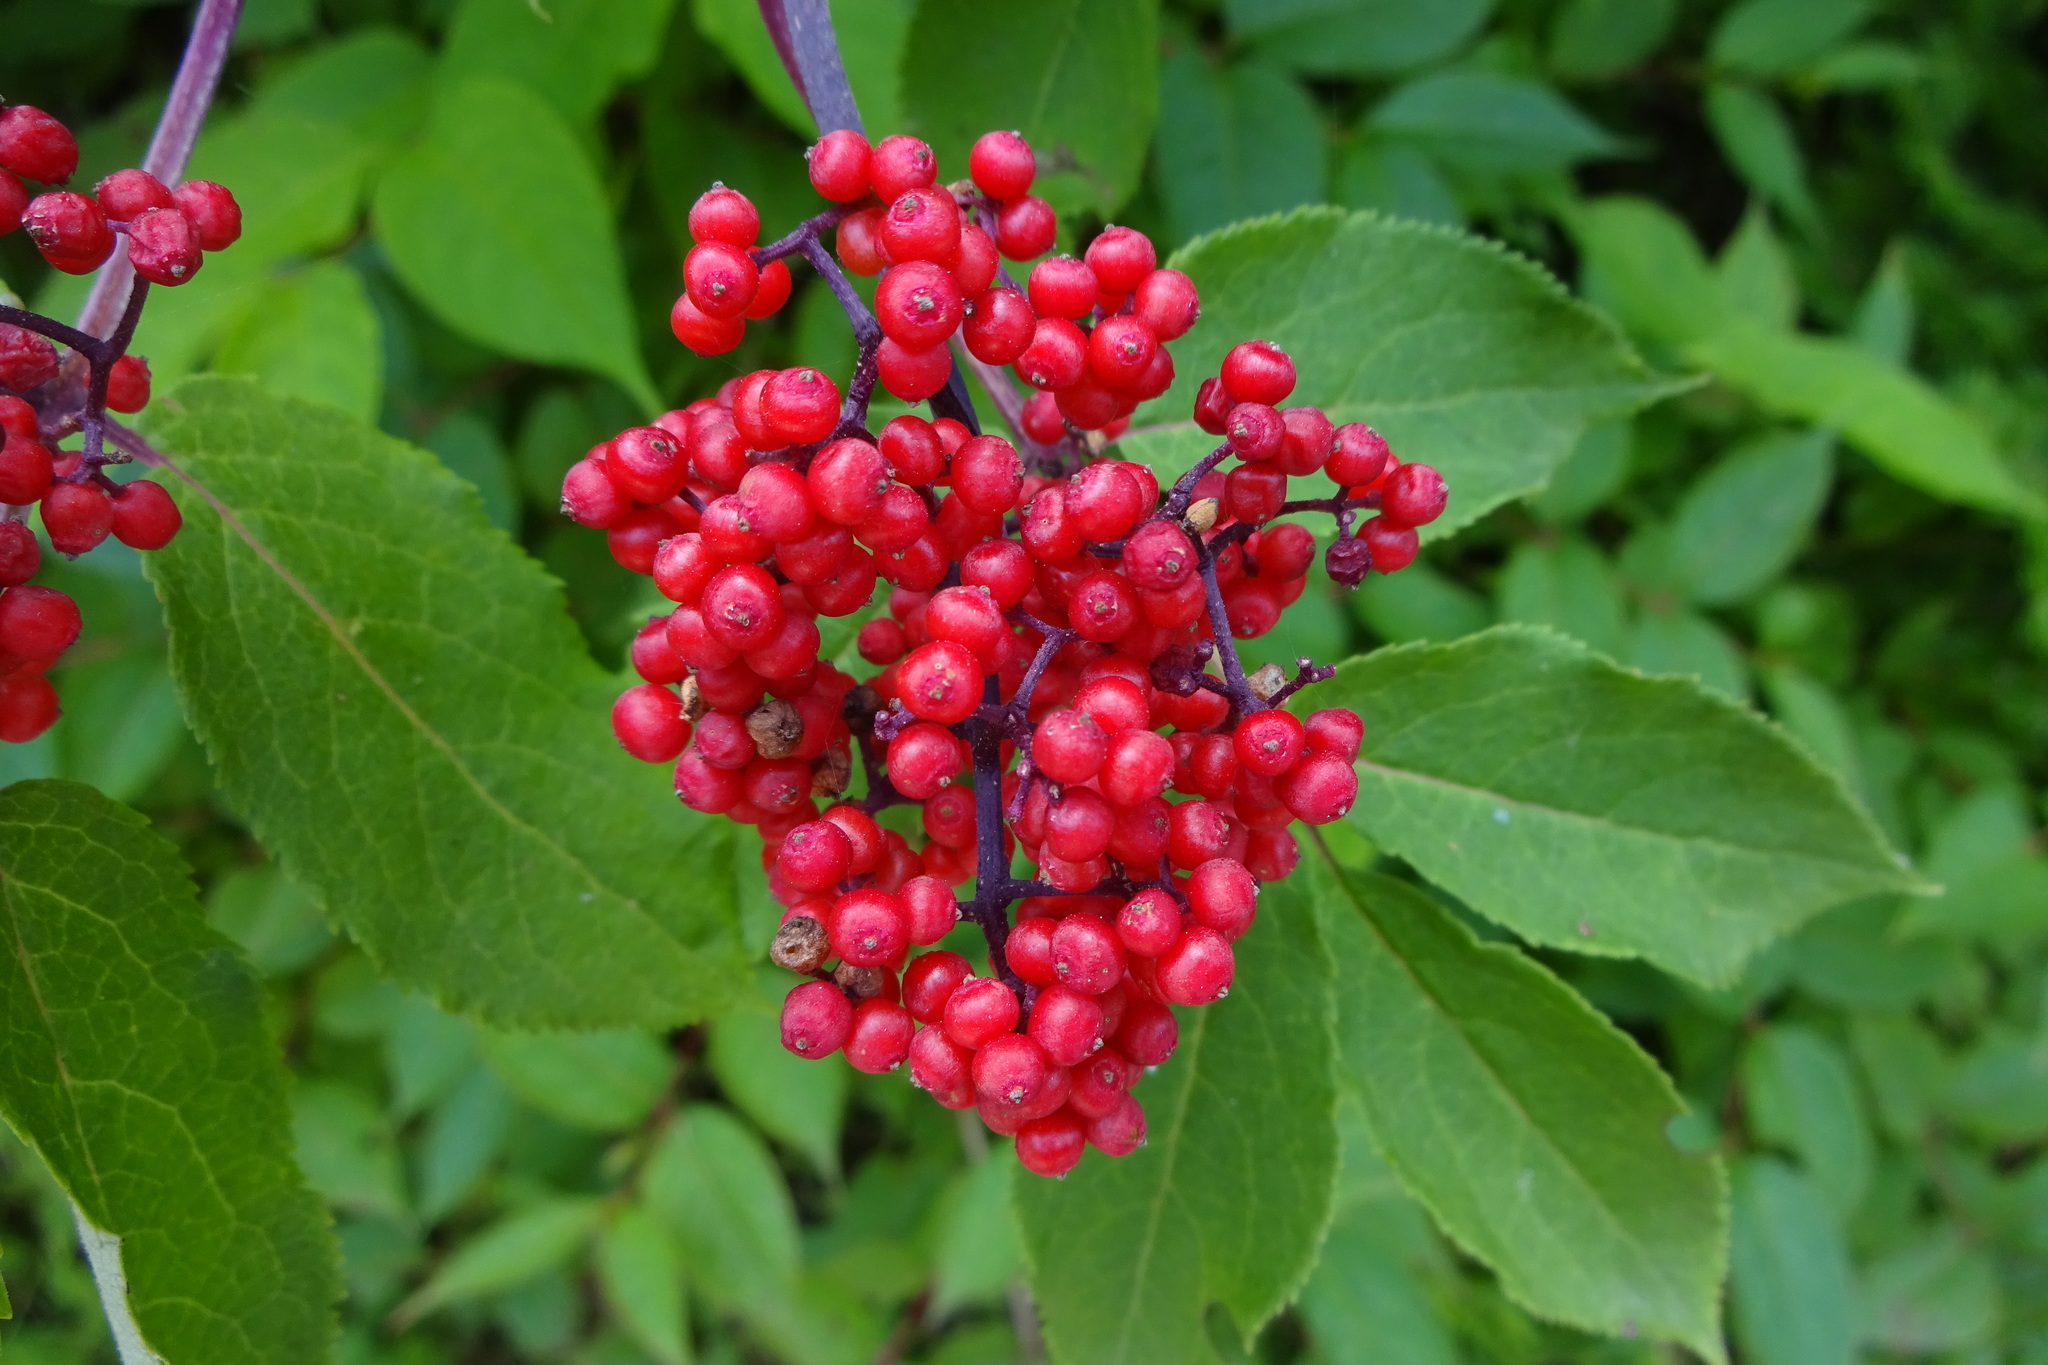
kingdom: Plantae
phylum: Tracheophyta
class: Magnoliopsida
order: Dipsacales
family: Viburnaceae
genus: Sambucus
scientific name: Sambucus racemosa
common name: Red-berried elder
